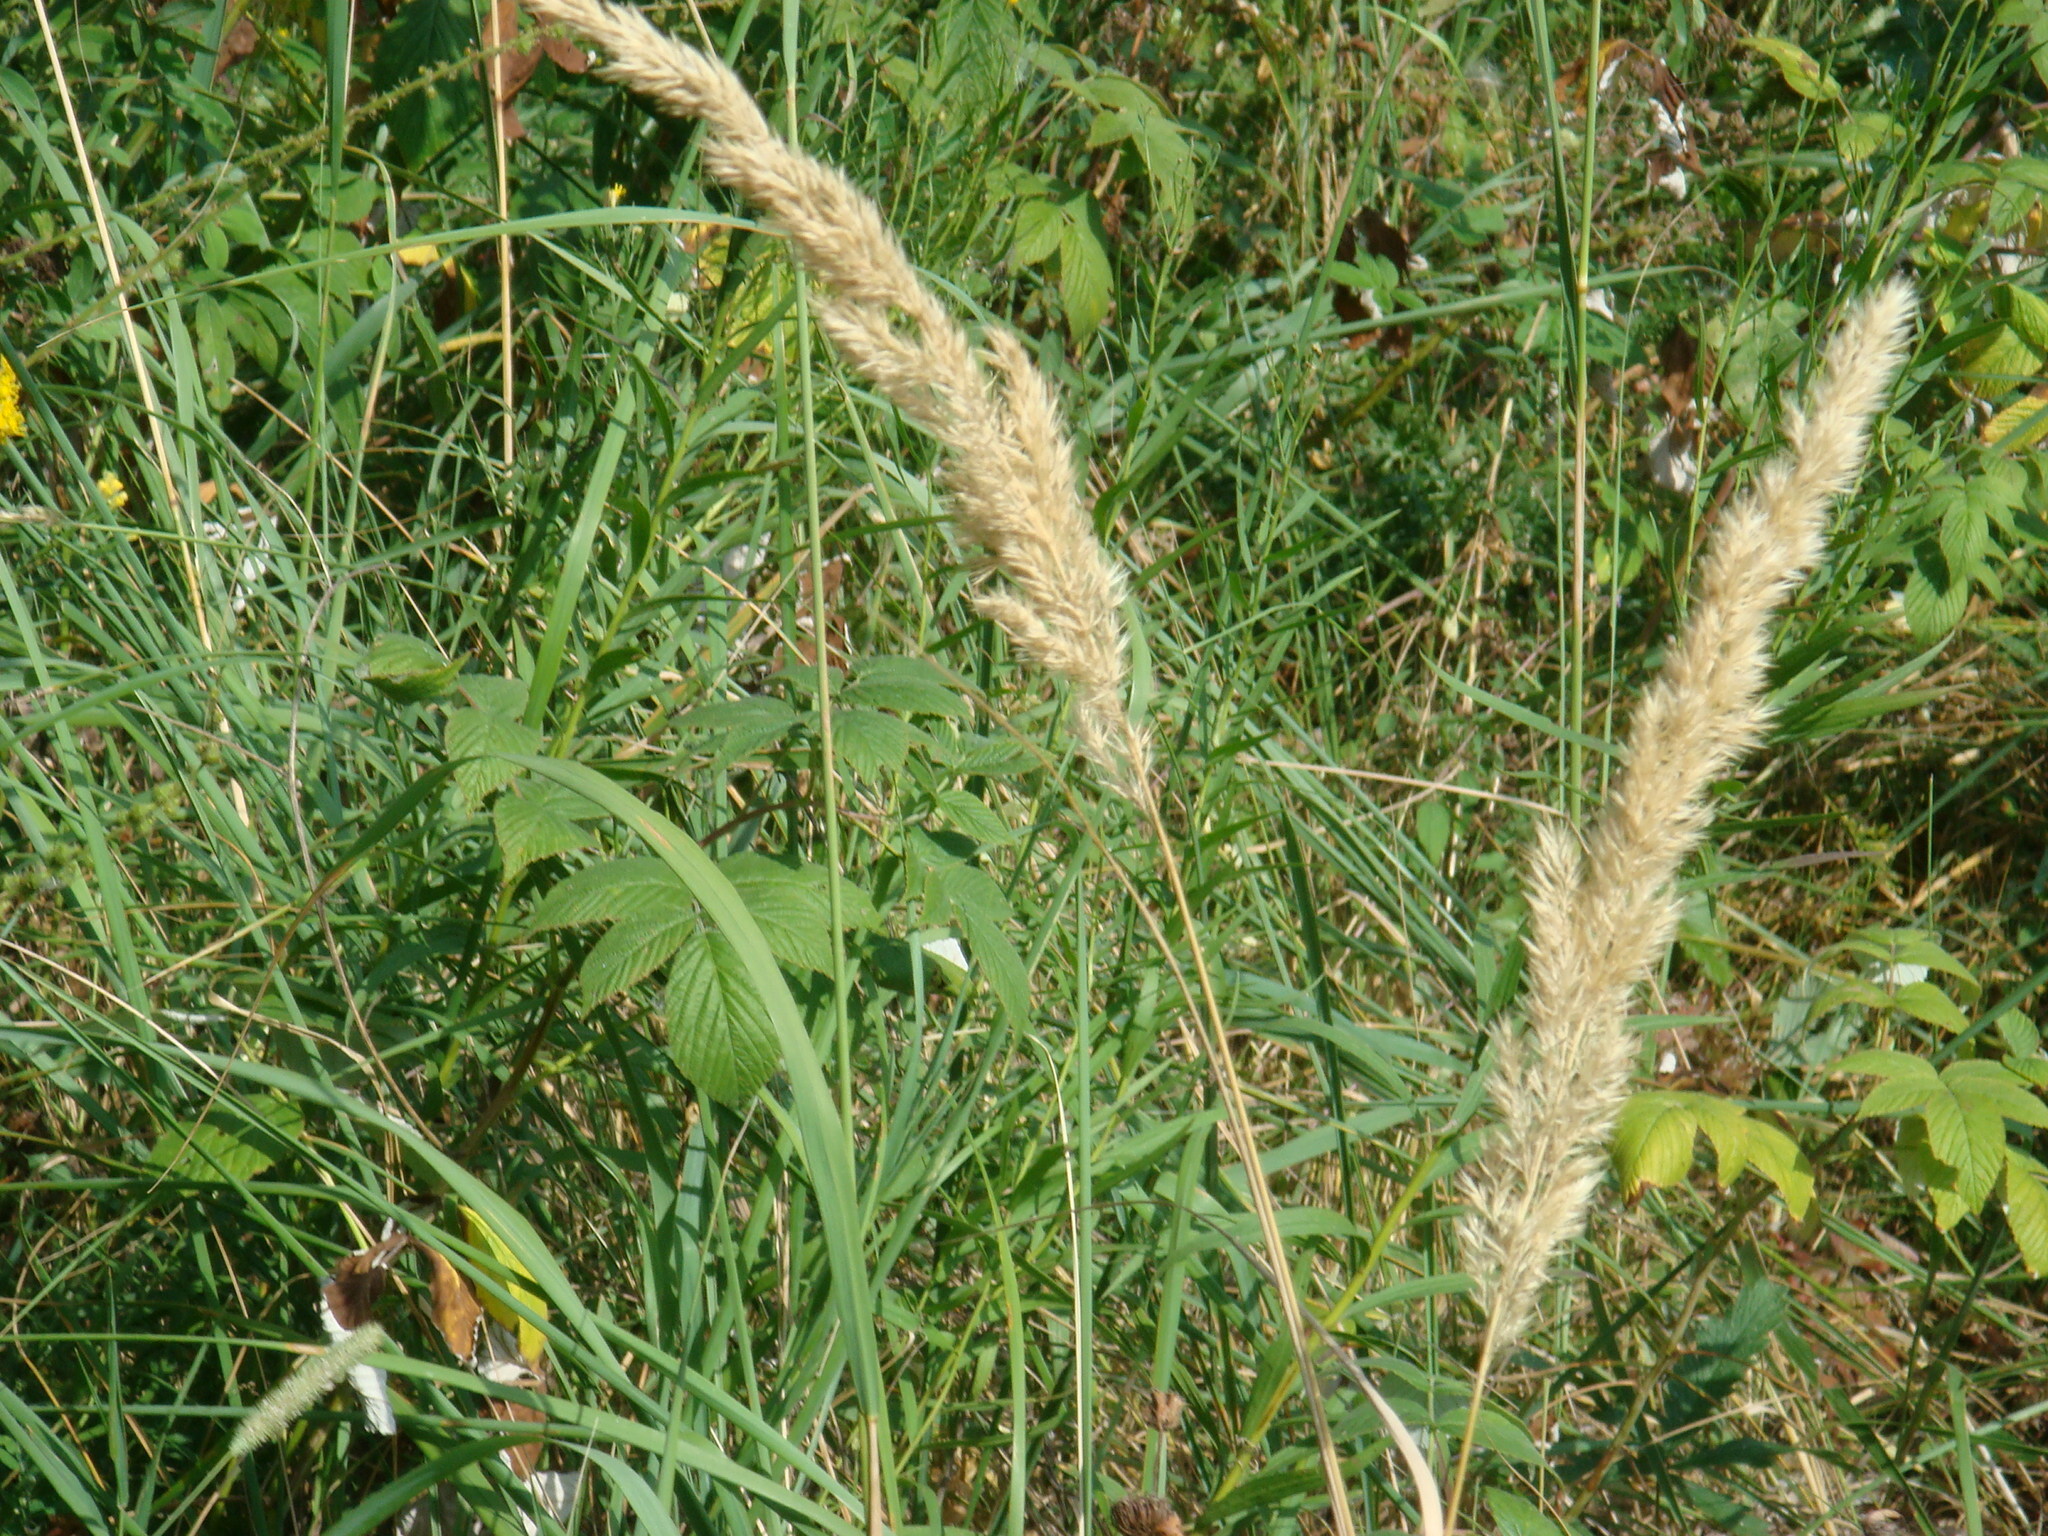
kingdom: Plantae
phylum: Tracheophyta
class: Liliopsida
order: Poales
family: Poaceae
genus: Calamagrostis
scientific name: Calamagrostis epigejos
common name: Wood small-reed
